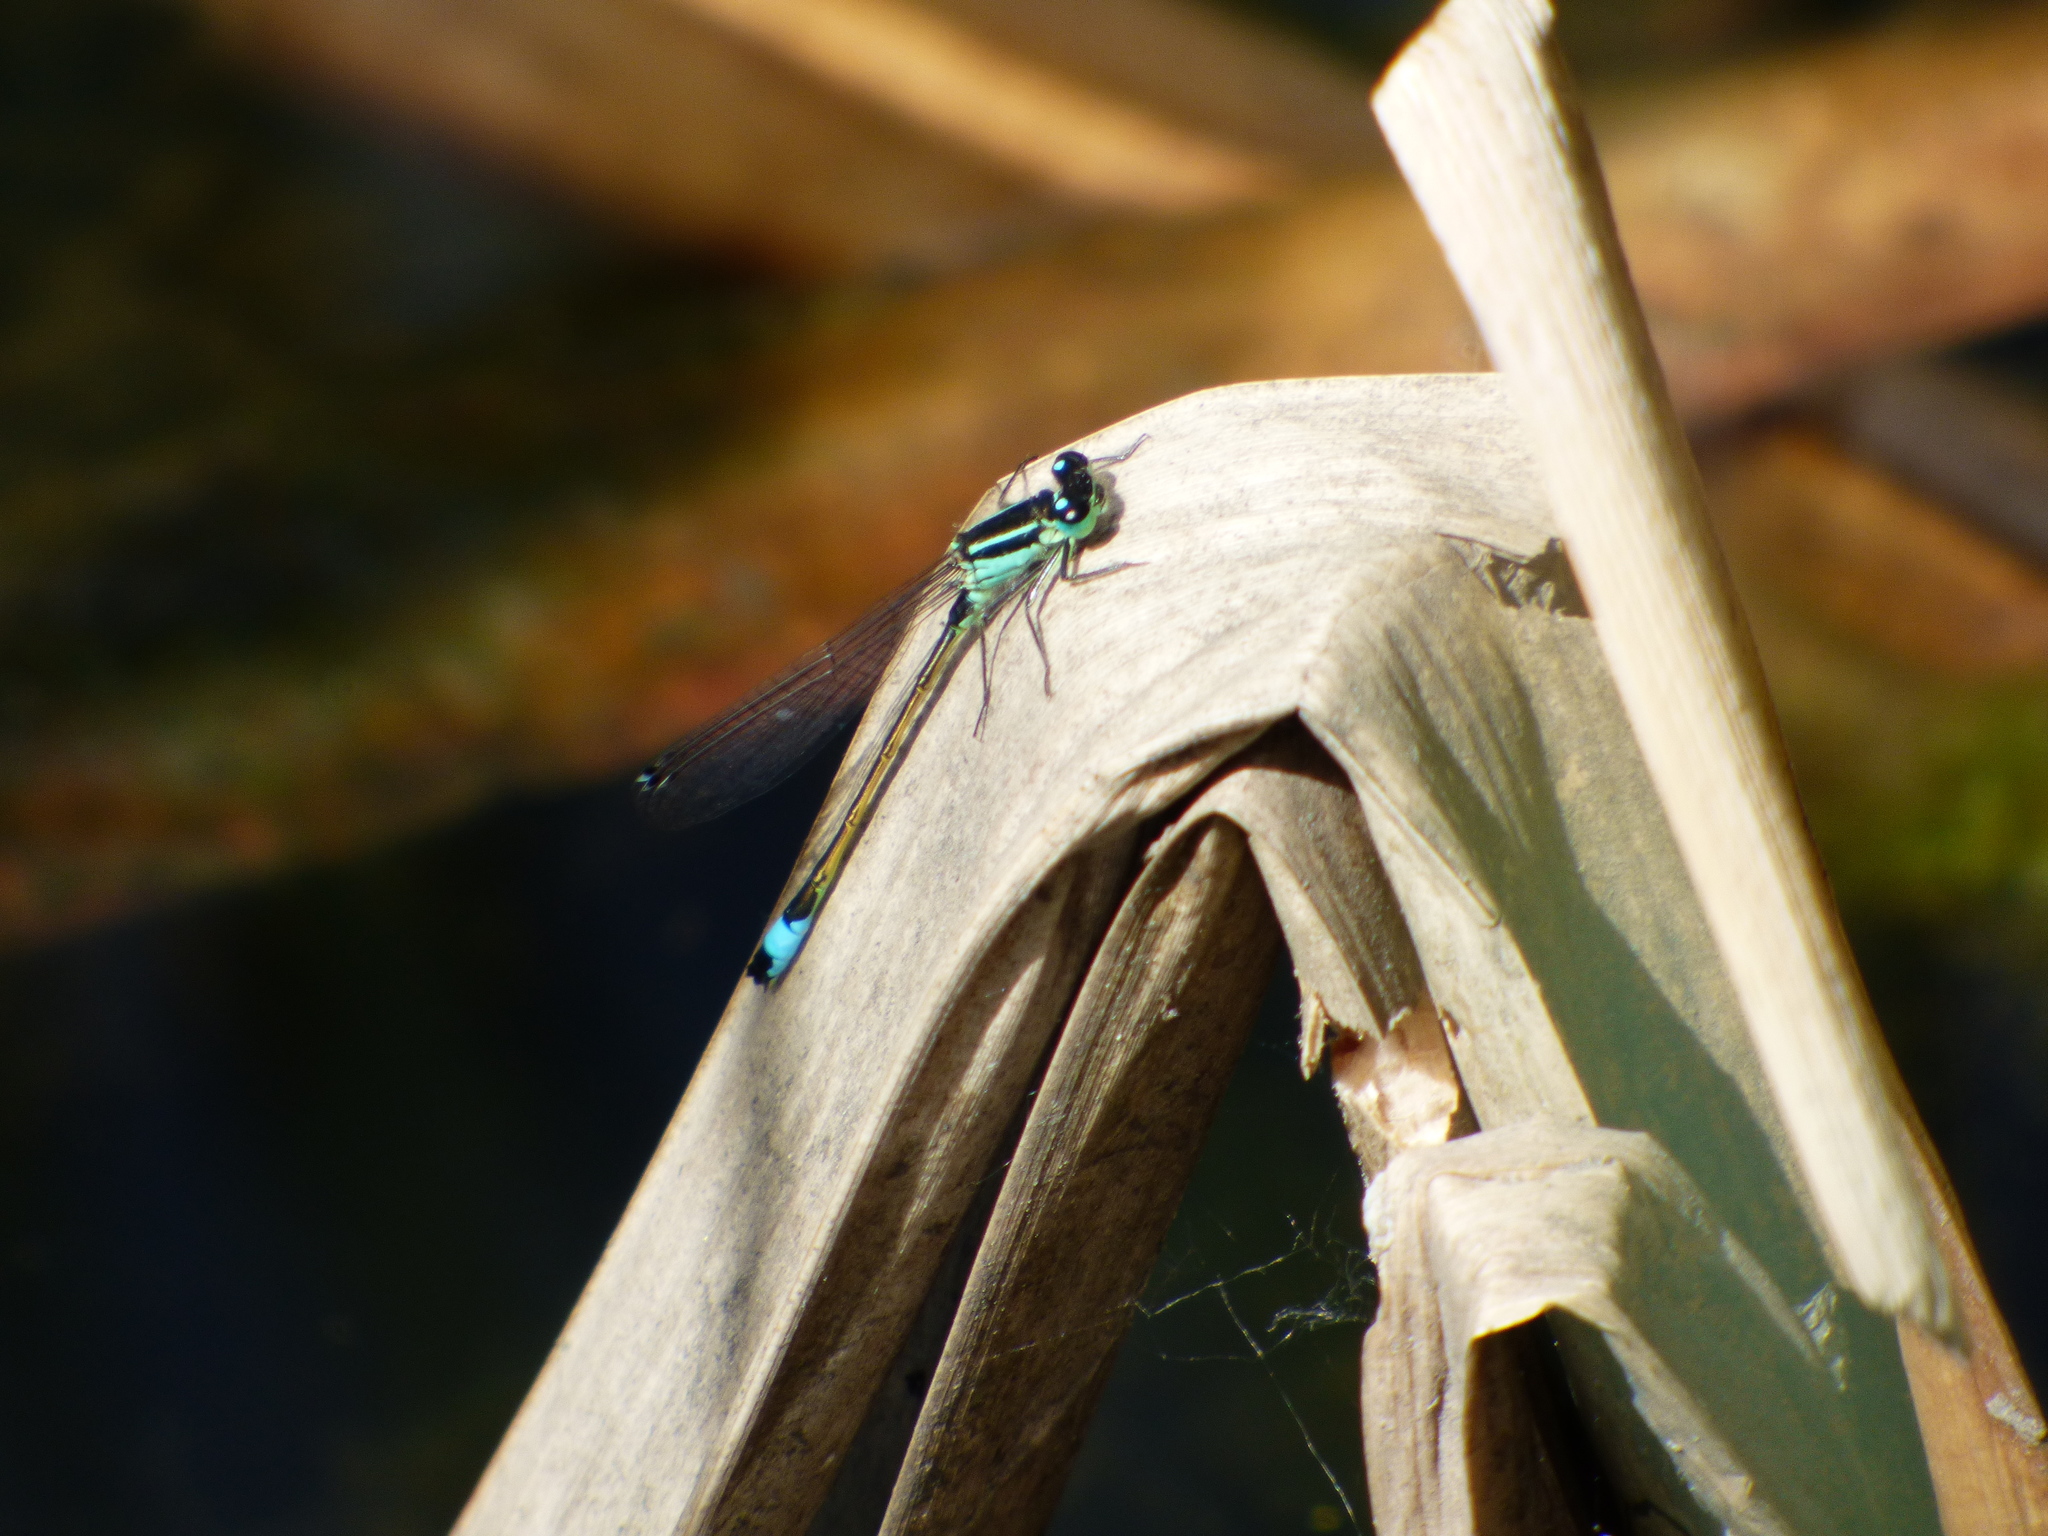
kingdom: Animalia
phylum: Arthropoda
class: Insecta
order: Odonata
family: Coenagrionidae
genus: Ischnura
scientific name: Ischnura elegans
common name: Blue-tailed damselfly
